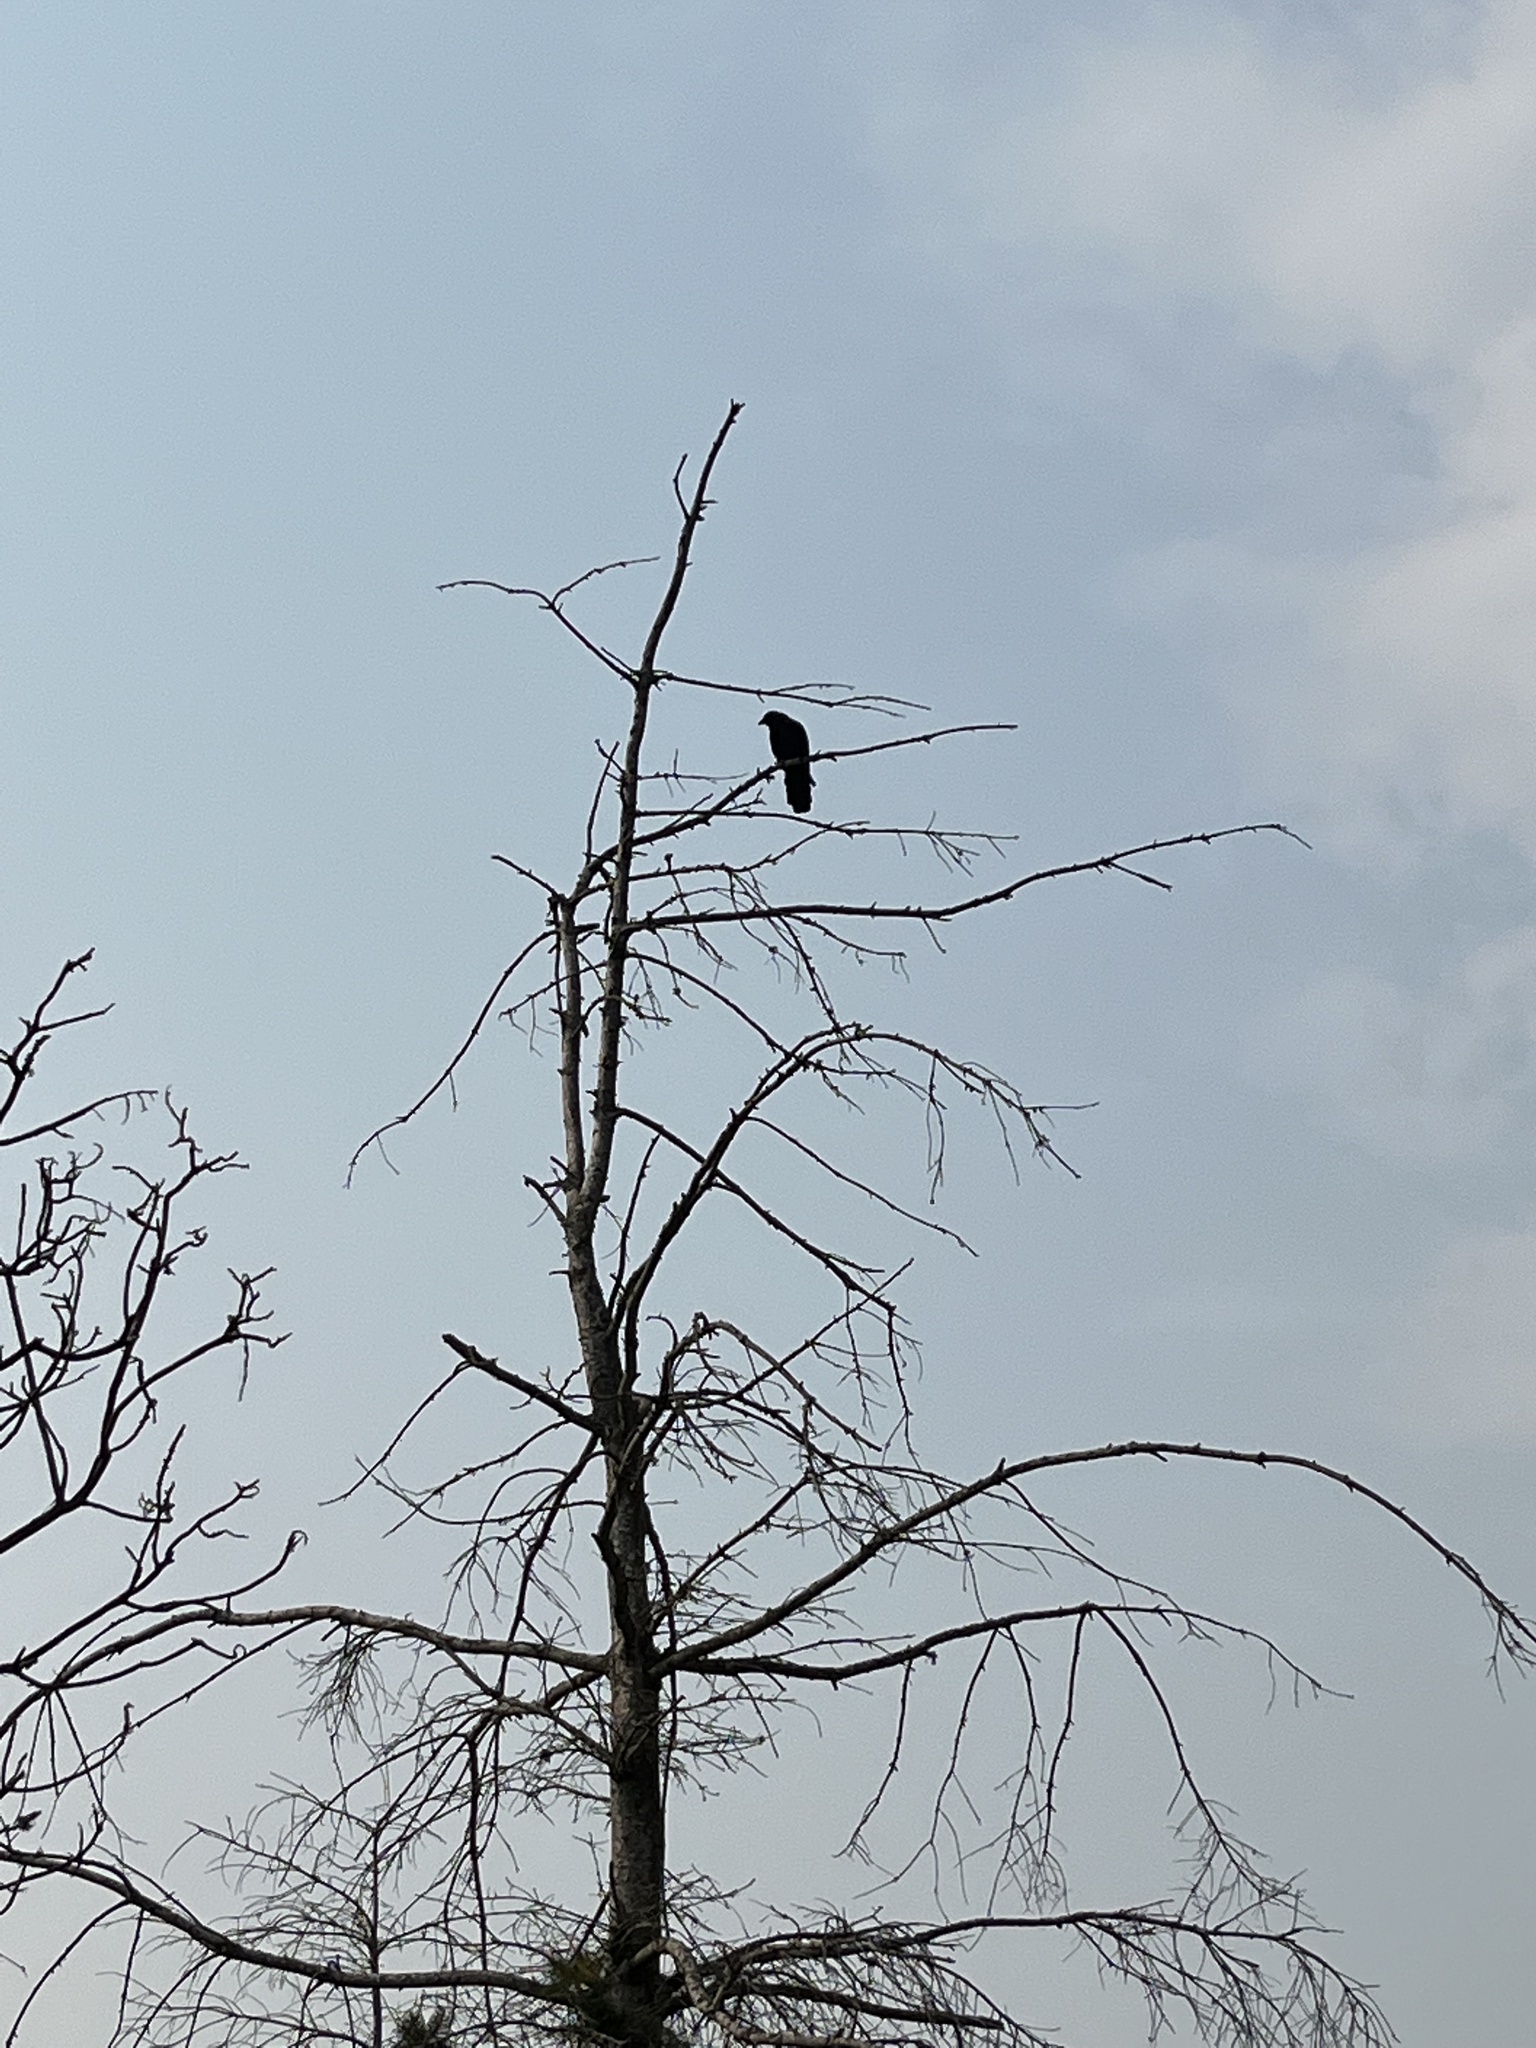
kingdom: Animalia
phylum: Chordata
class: Aves
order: Passeriformes
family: Corvidae
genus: Corvus
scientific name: Corvus brachyrhynchos
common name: American crow
